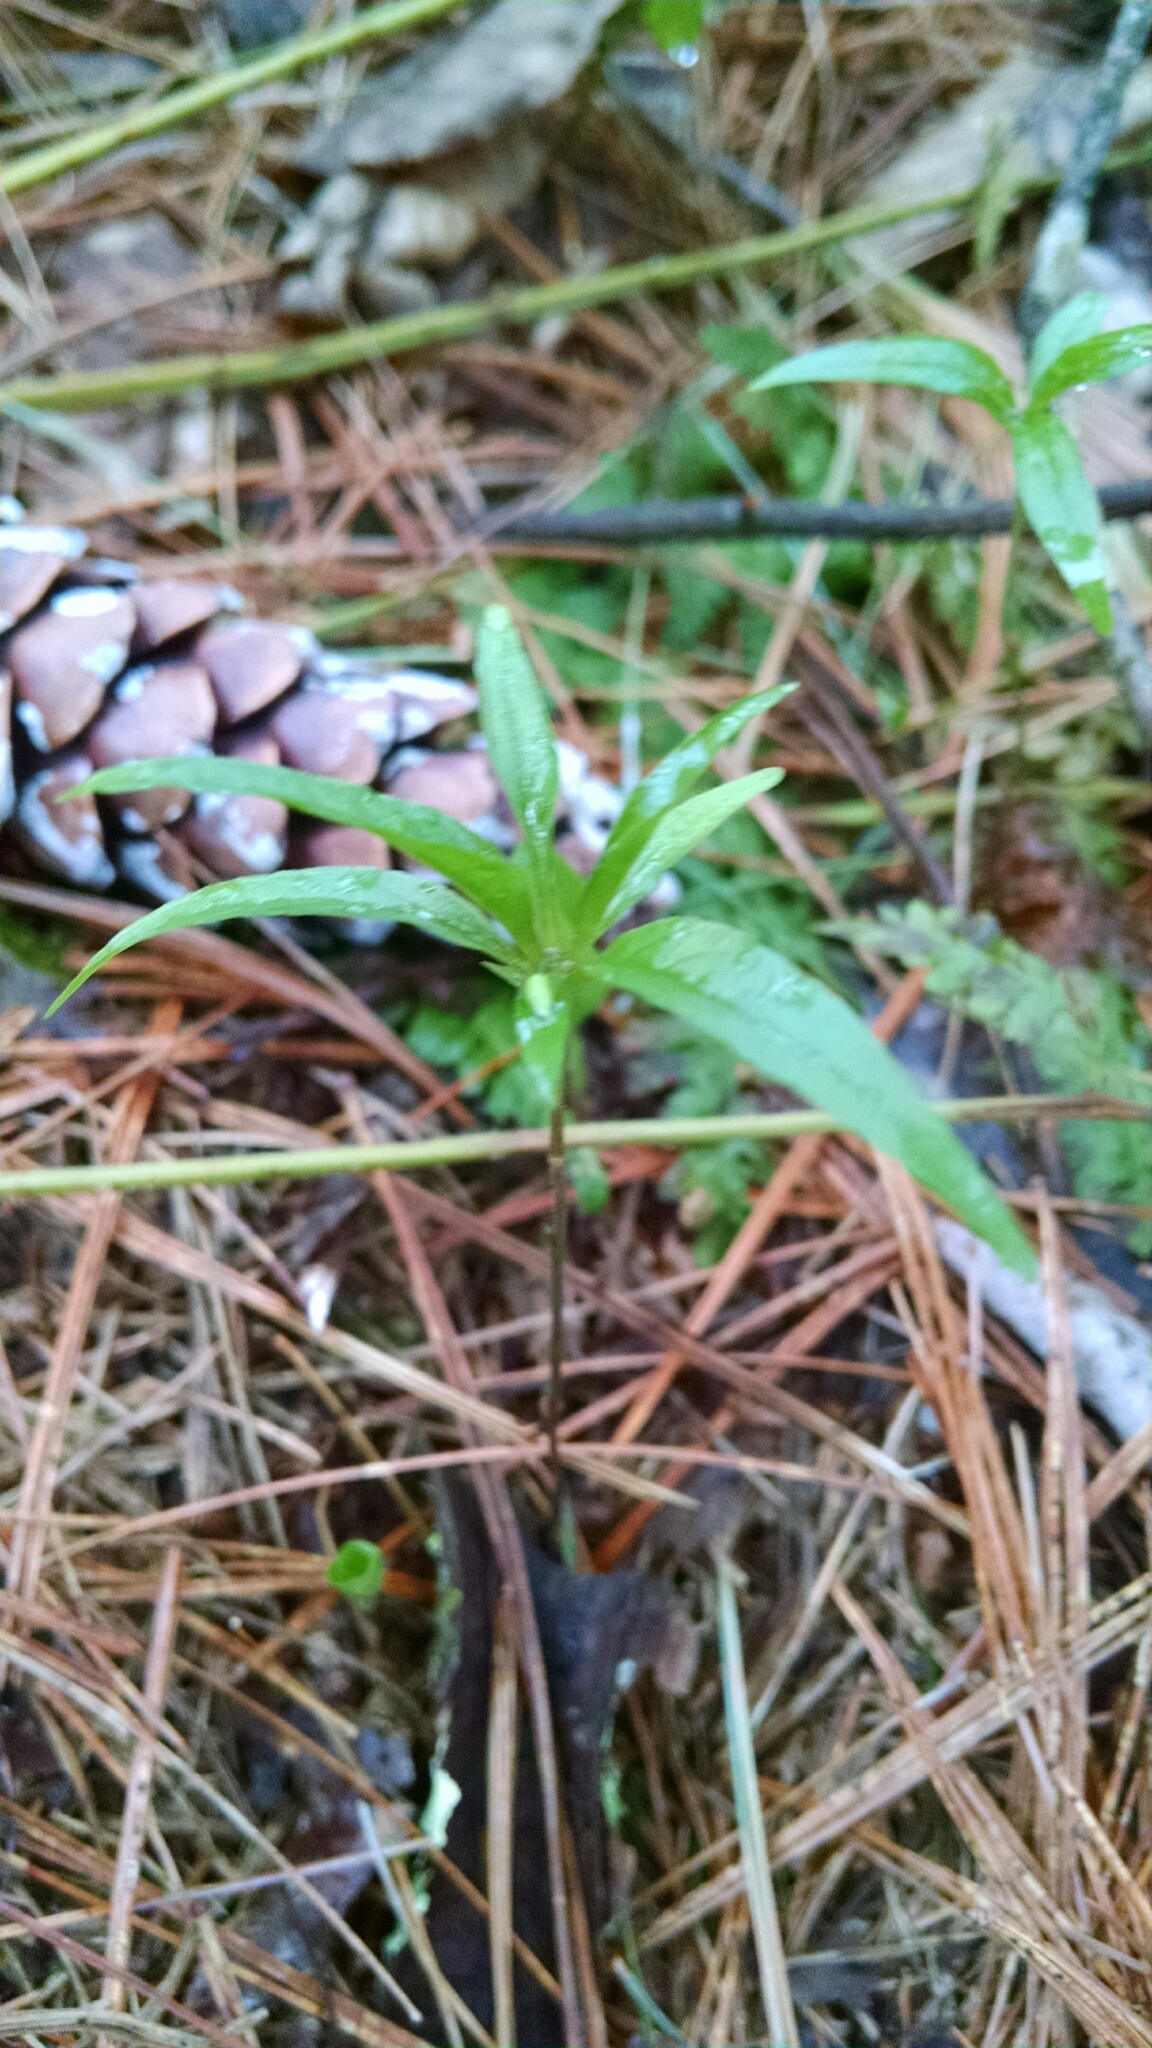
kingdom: Plantae
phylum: Tracheophyta
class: Magnoliopsida
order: Ericales
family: Primulaceae
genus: Lysimachia
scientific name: Lysimachia borealis
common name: American starflower
